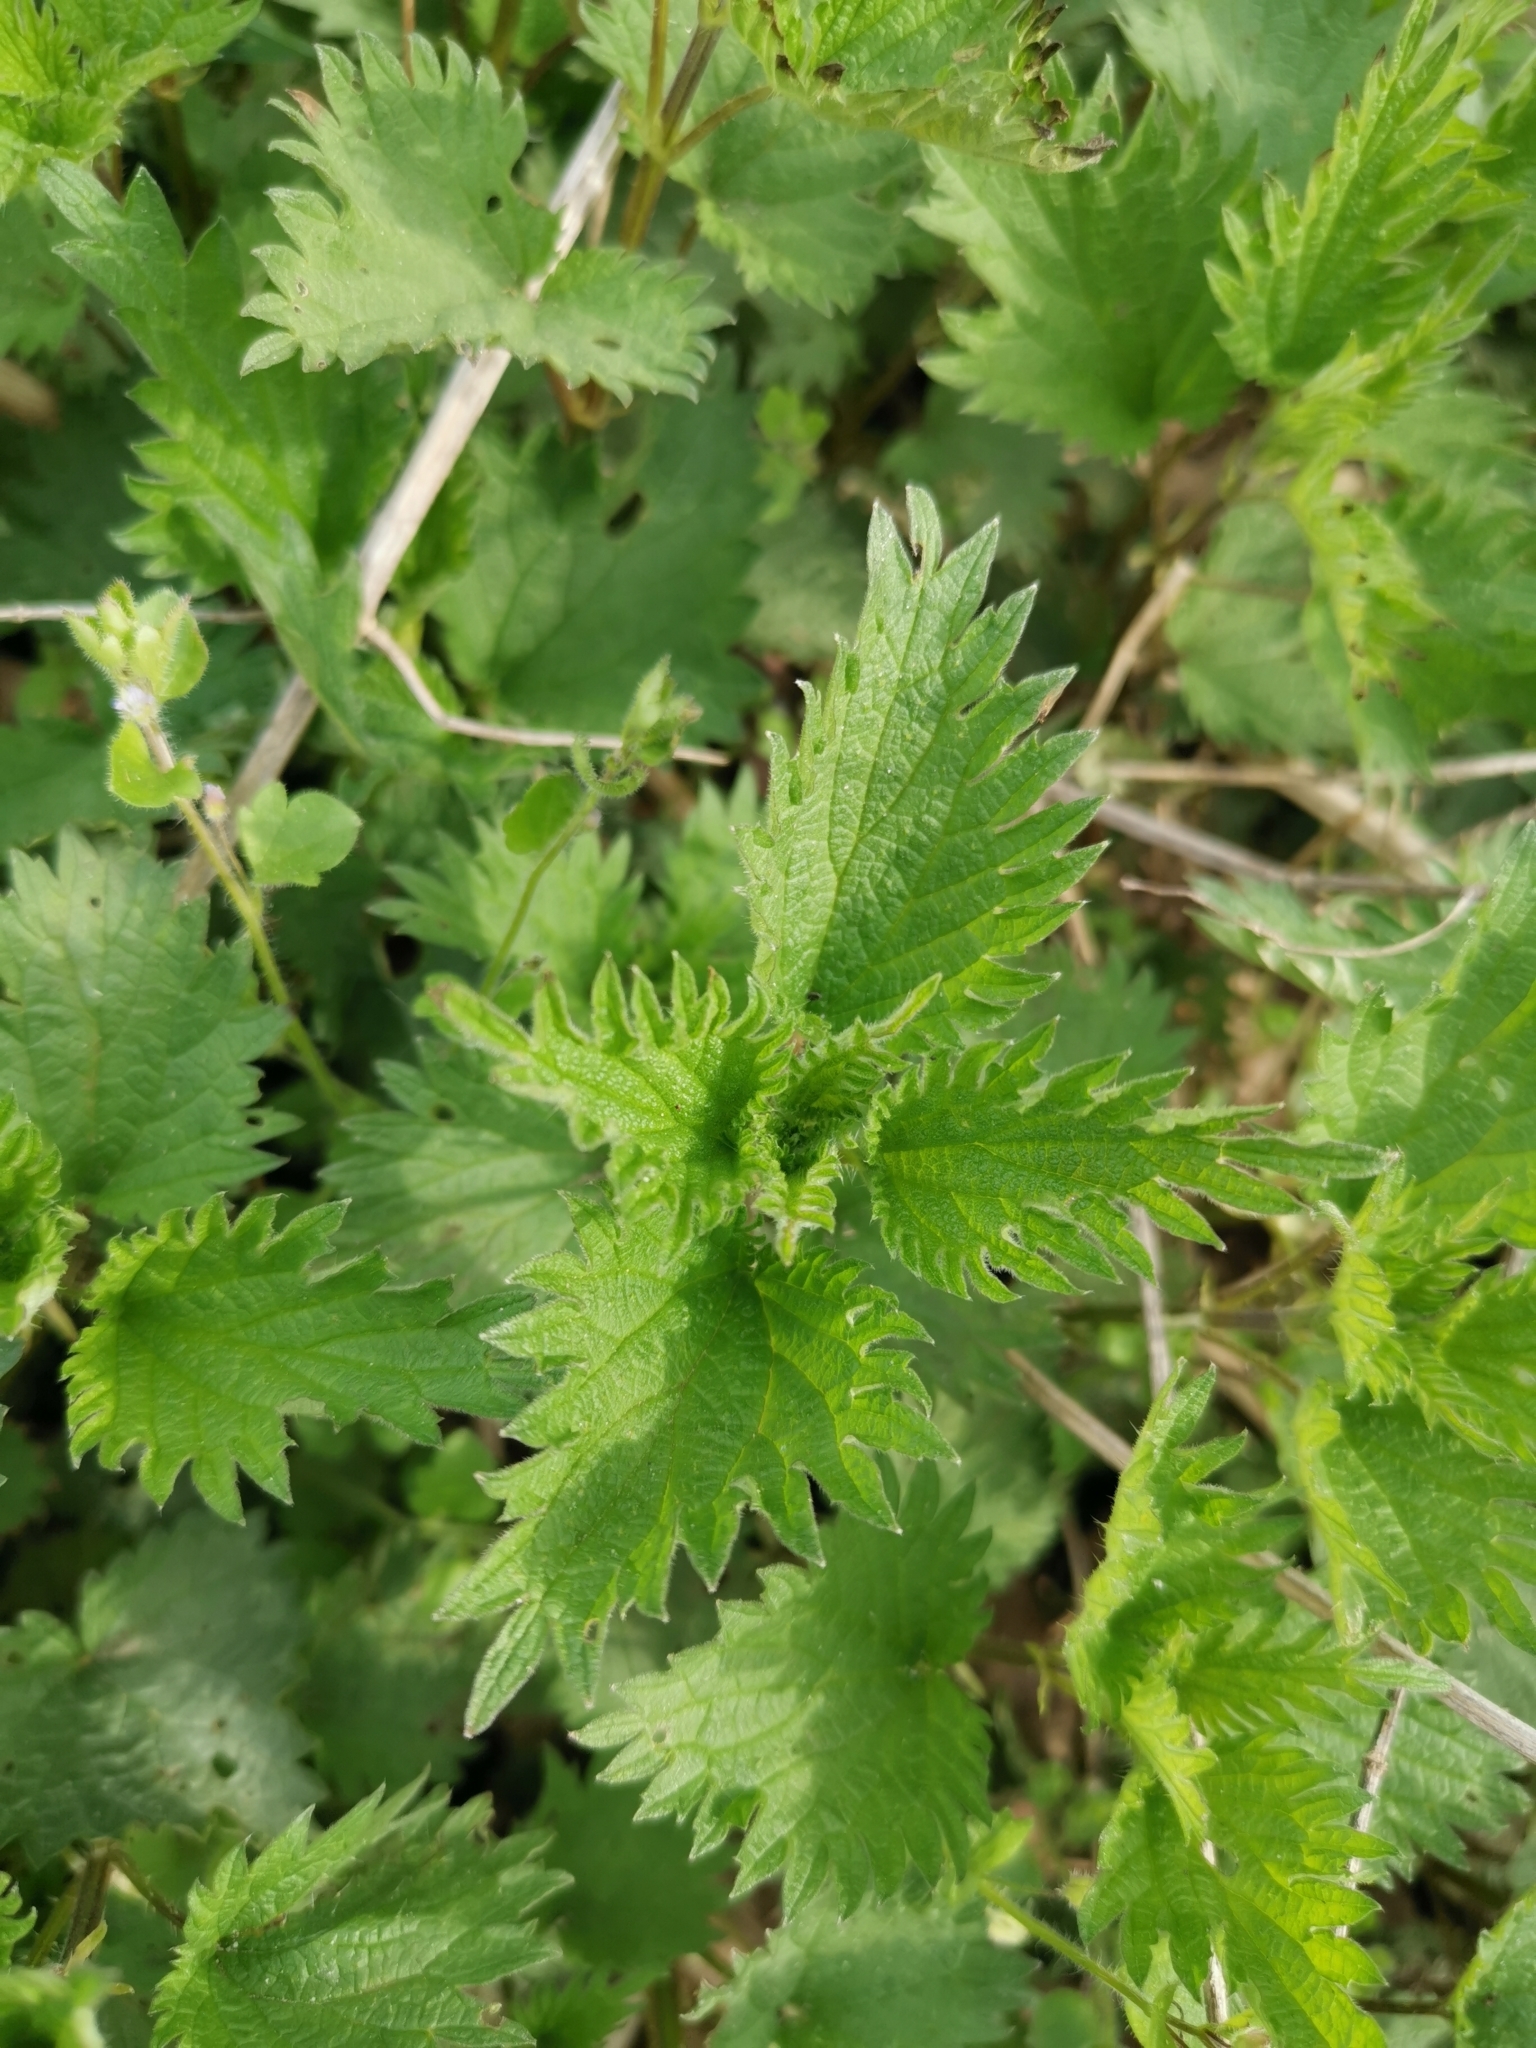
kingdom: Plantae
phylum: Tracheophyta
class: Magnoliopsida
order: Rosales
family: Urticaceae
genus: Urtica
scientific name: Urtica dioica
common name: Common nettle
